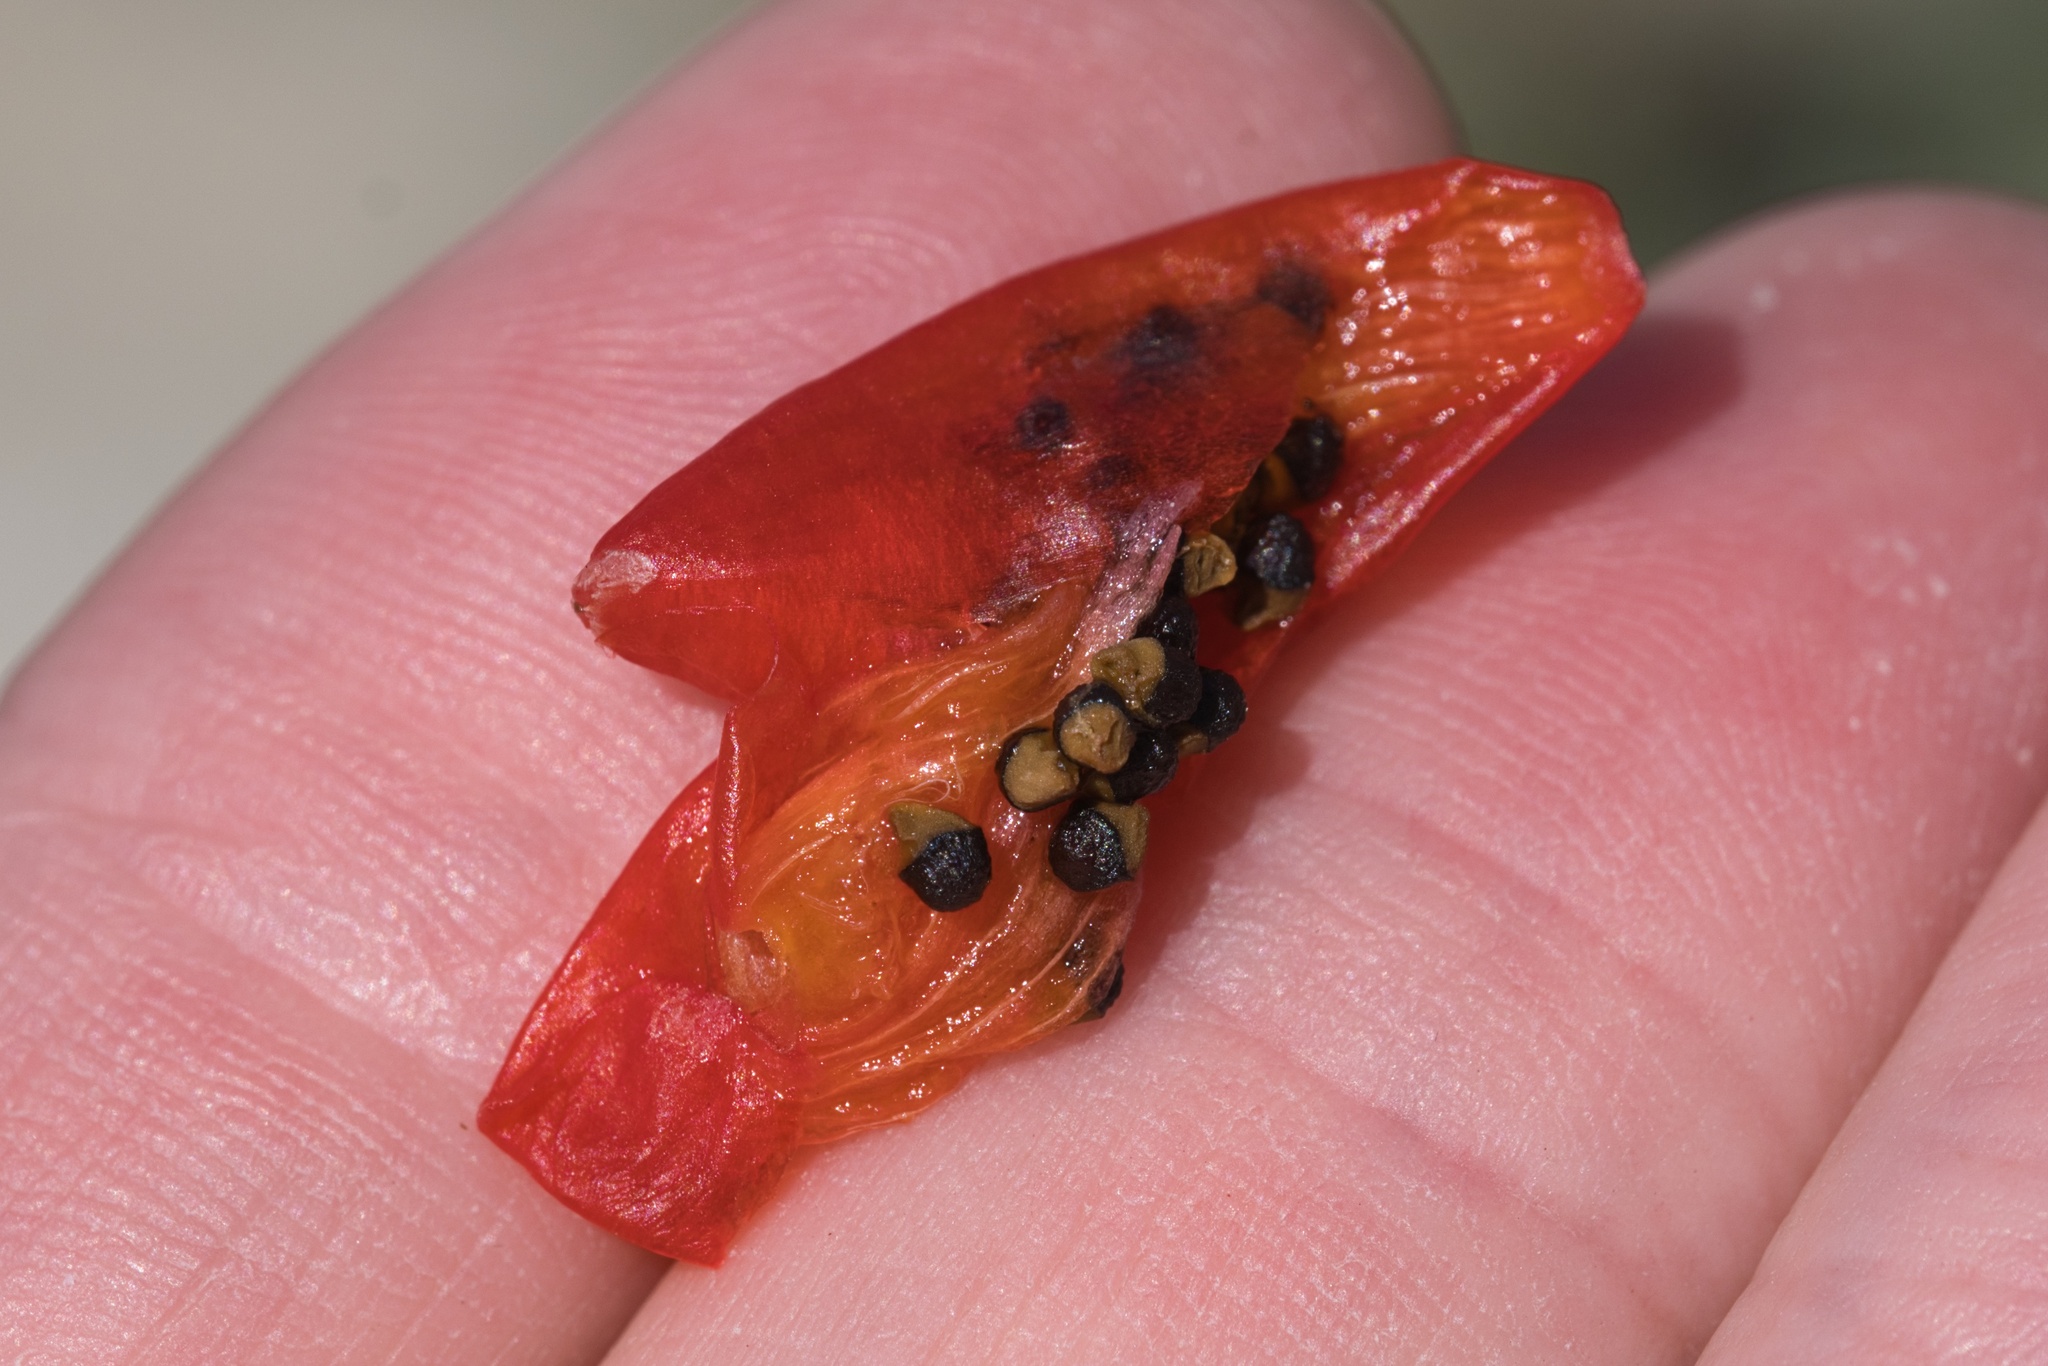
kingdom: Plantae
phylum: Tracheophyta
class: Magnoliopsida
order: Caryophyllales
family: Cactaceae
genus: Cochemiea
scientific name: Cochemiea tetrancistra
